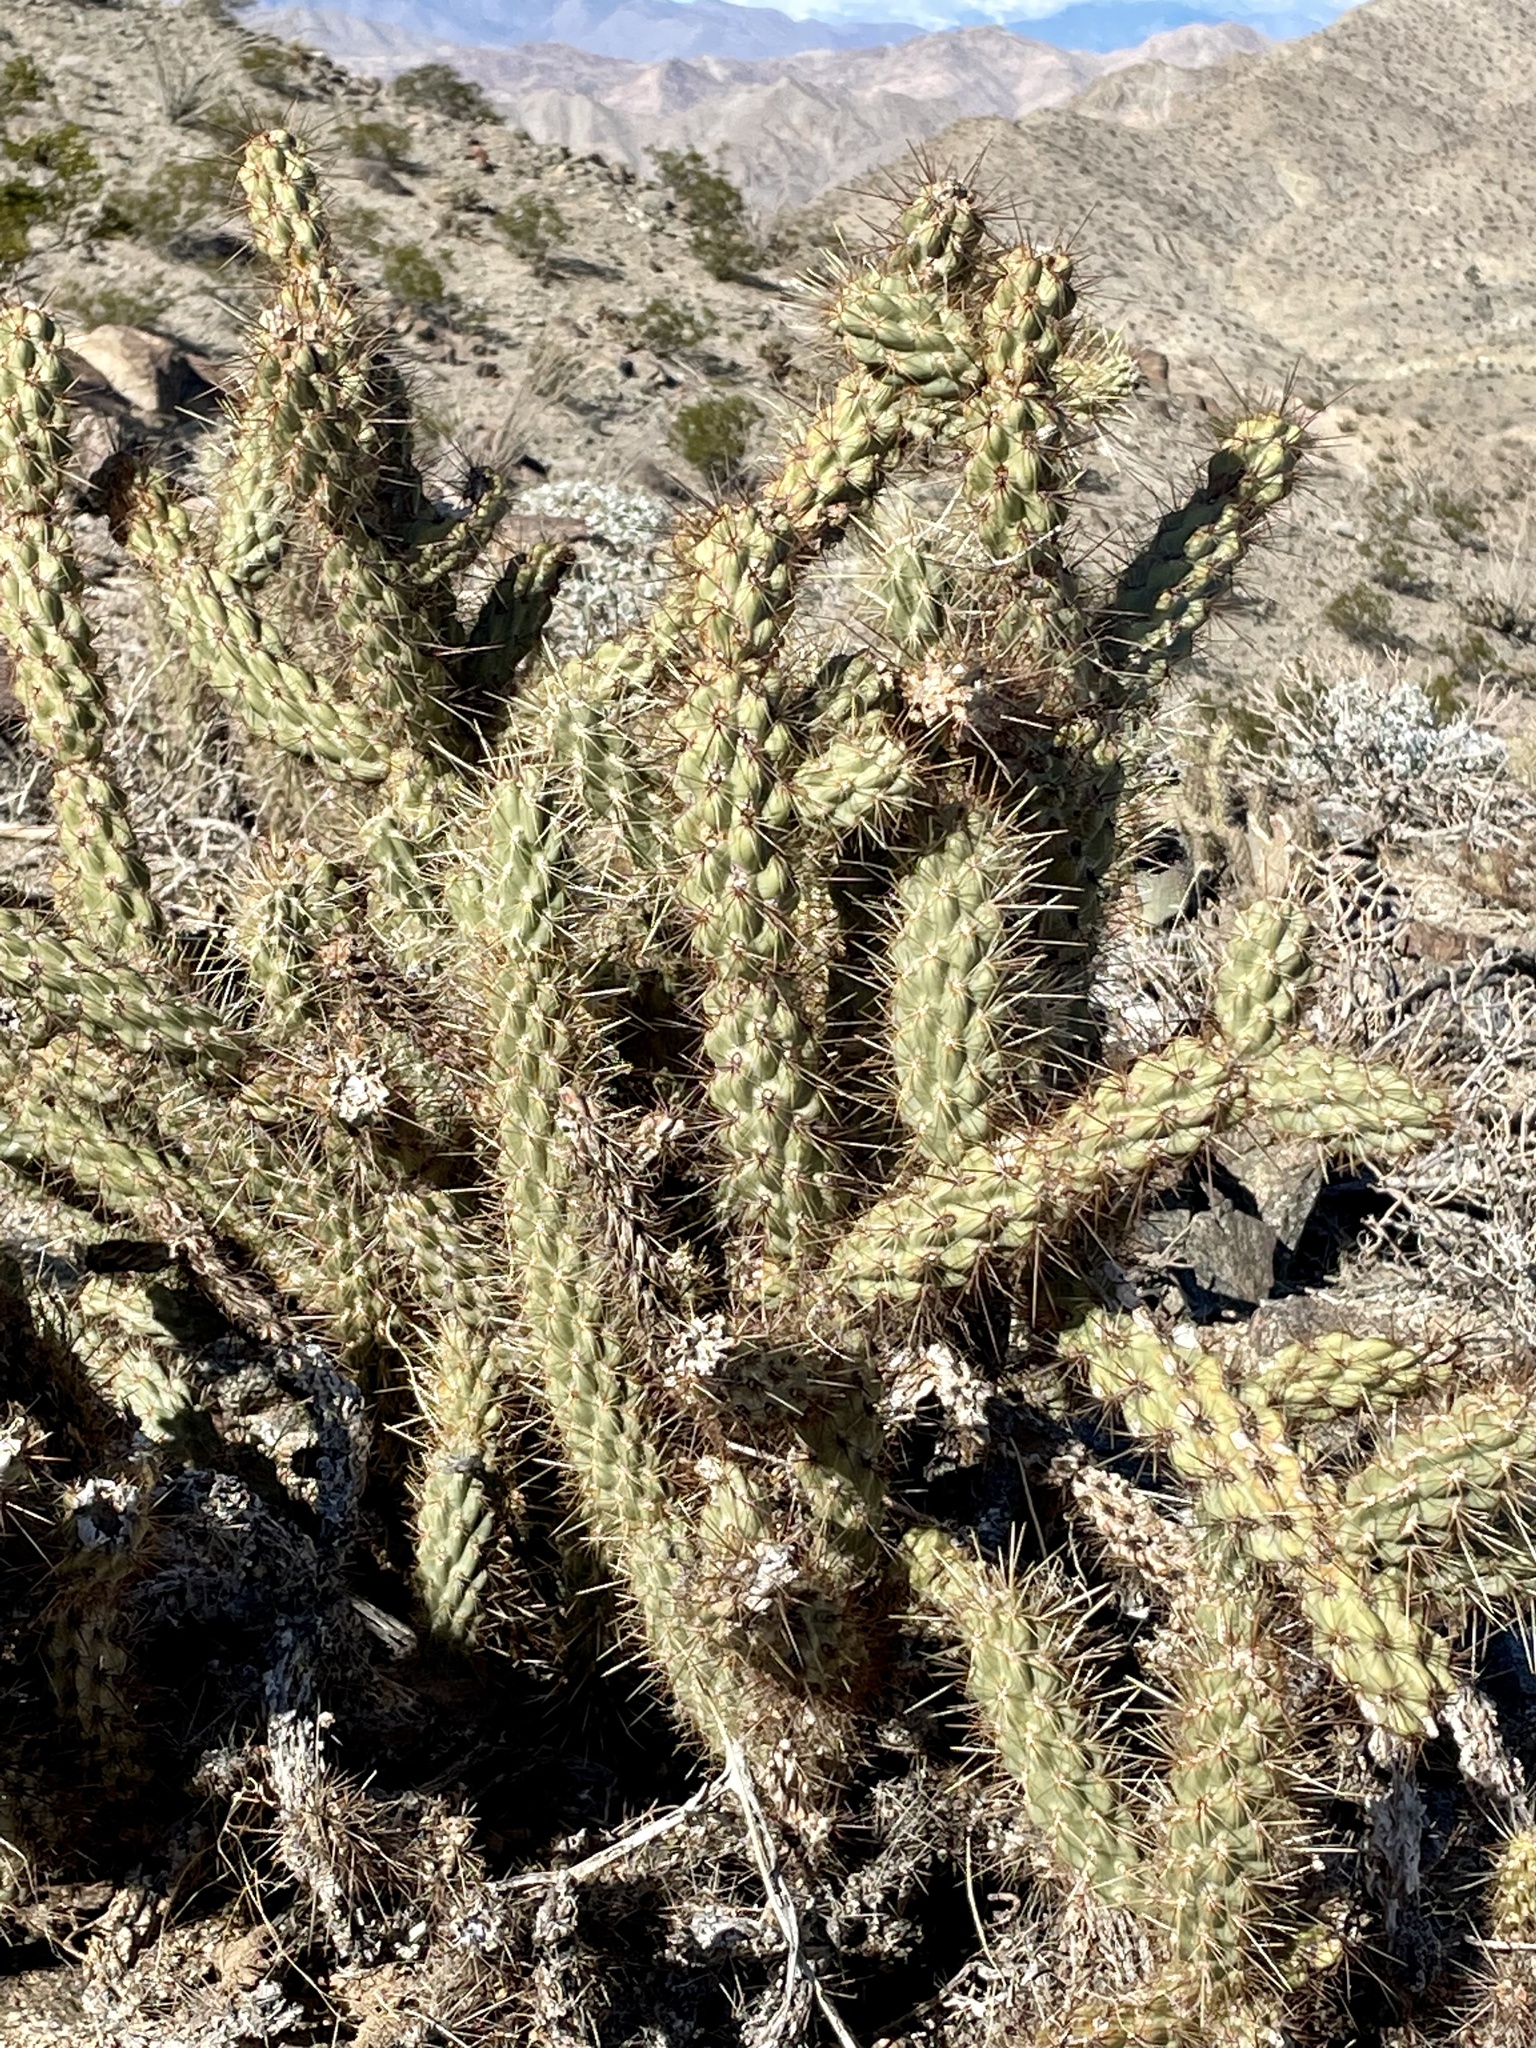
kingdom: Plantae
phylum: Tracheophyta
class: Magnoliopsida
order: Caryophyllales
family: Cactaceae
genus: Cylindropuntia
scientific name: Cylindropuntia ganderi
